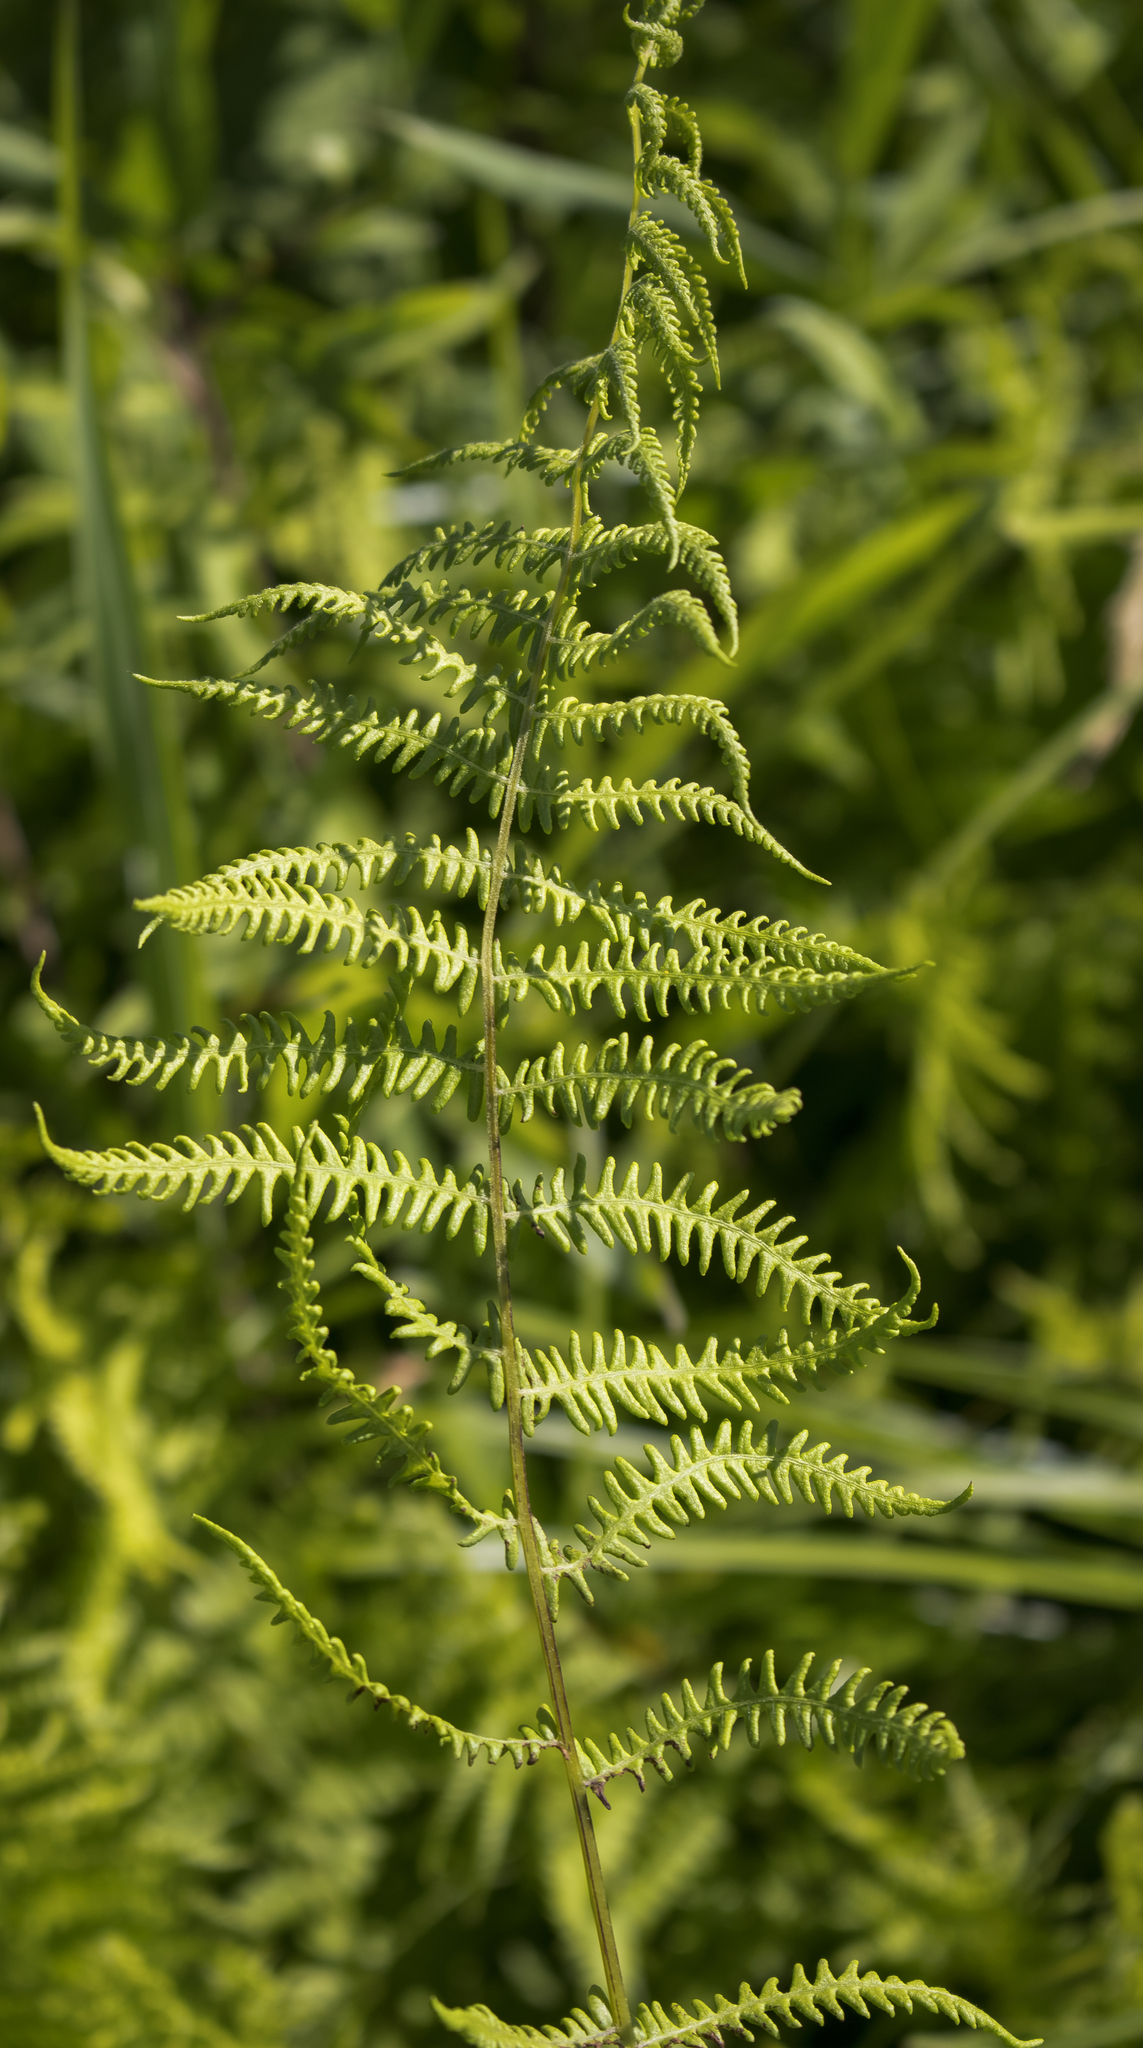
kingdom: Plantae
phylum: Tracheophyta
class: Polypodiopsida
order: Polypodiales
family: Thelypteridaceae
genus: Thelypteris
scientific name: Thelypteris palustris
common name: Marsh fern
